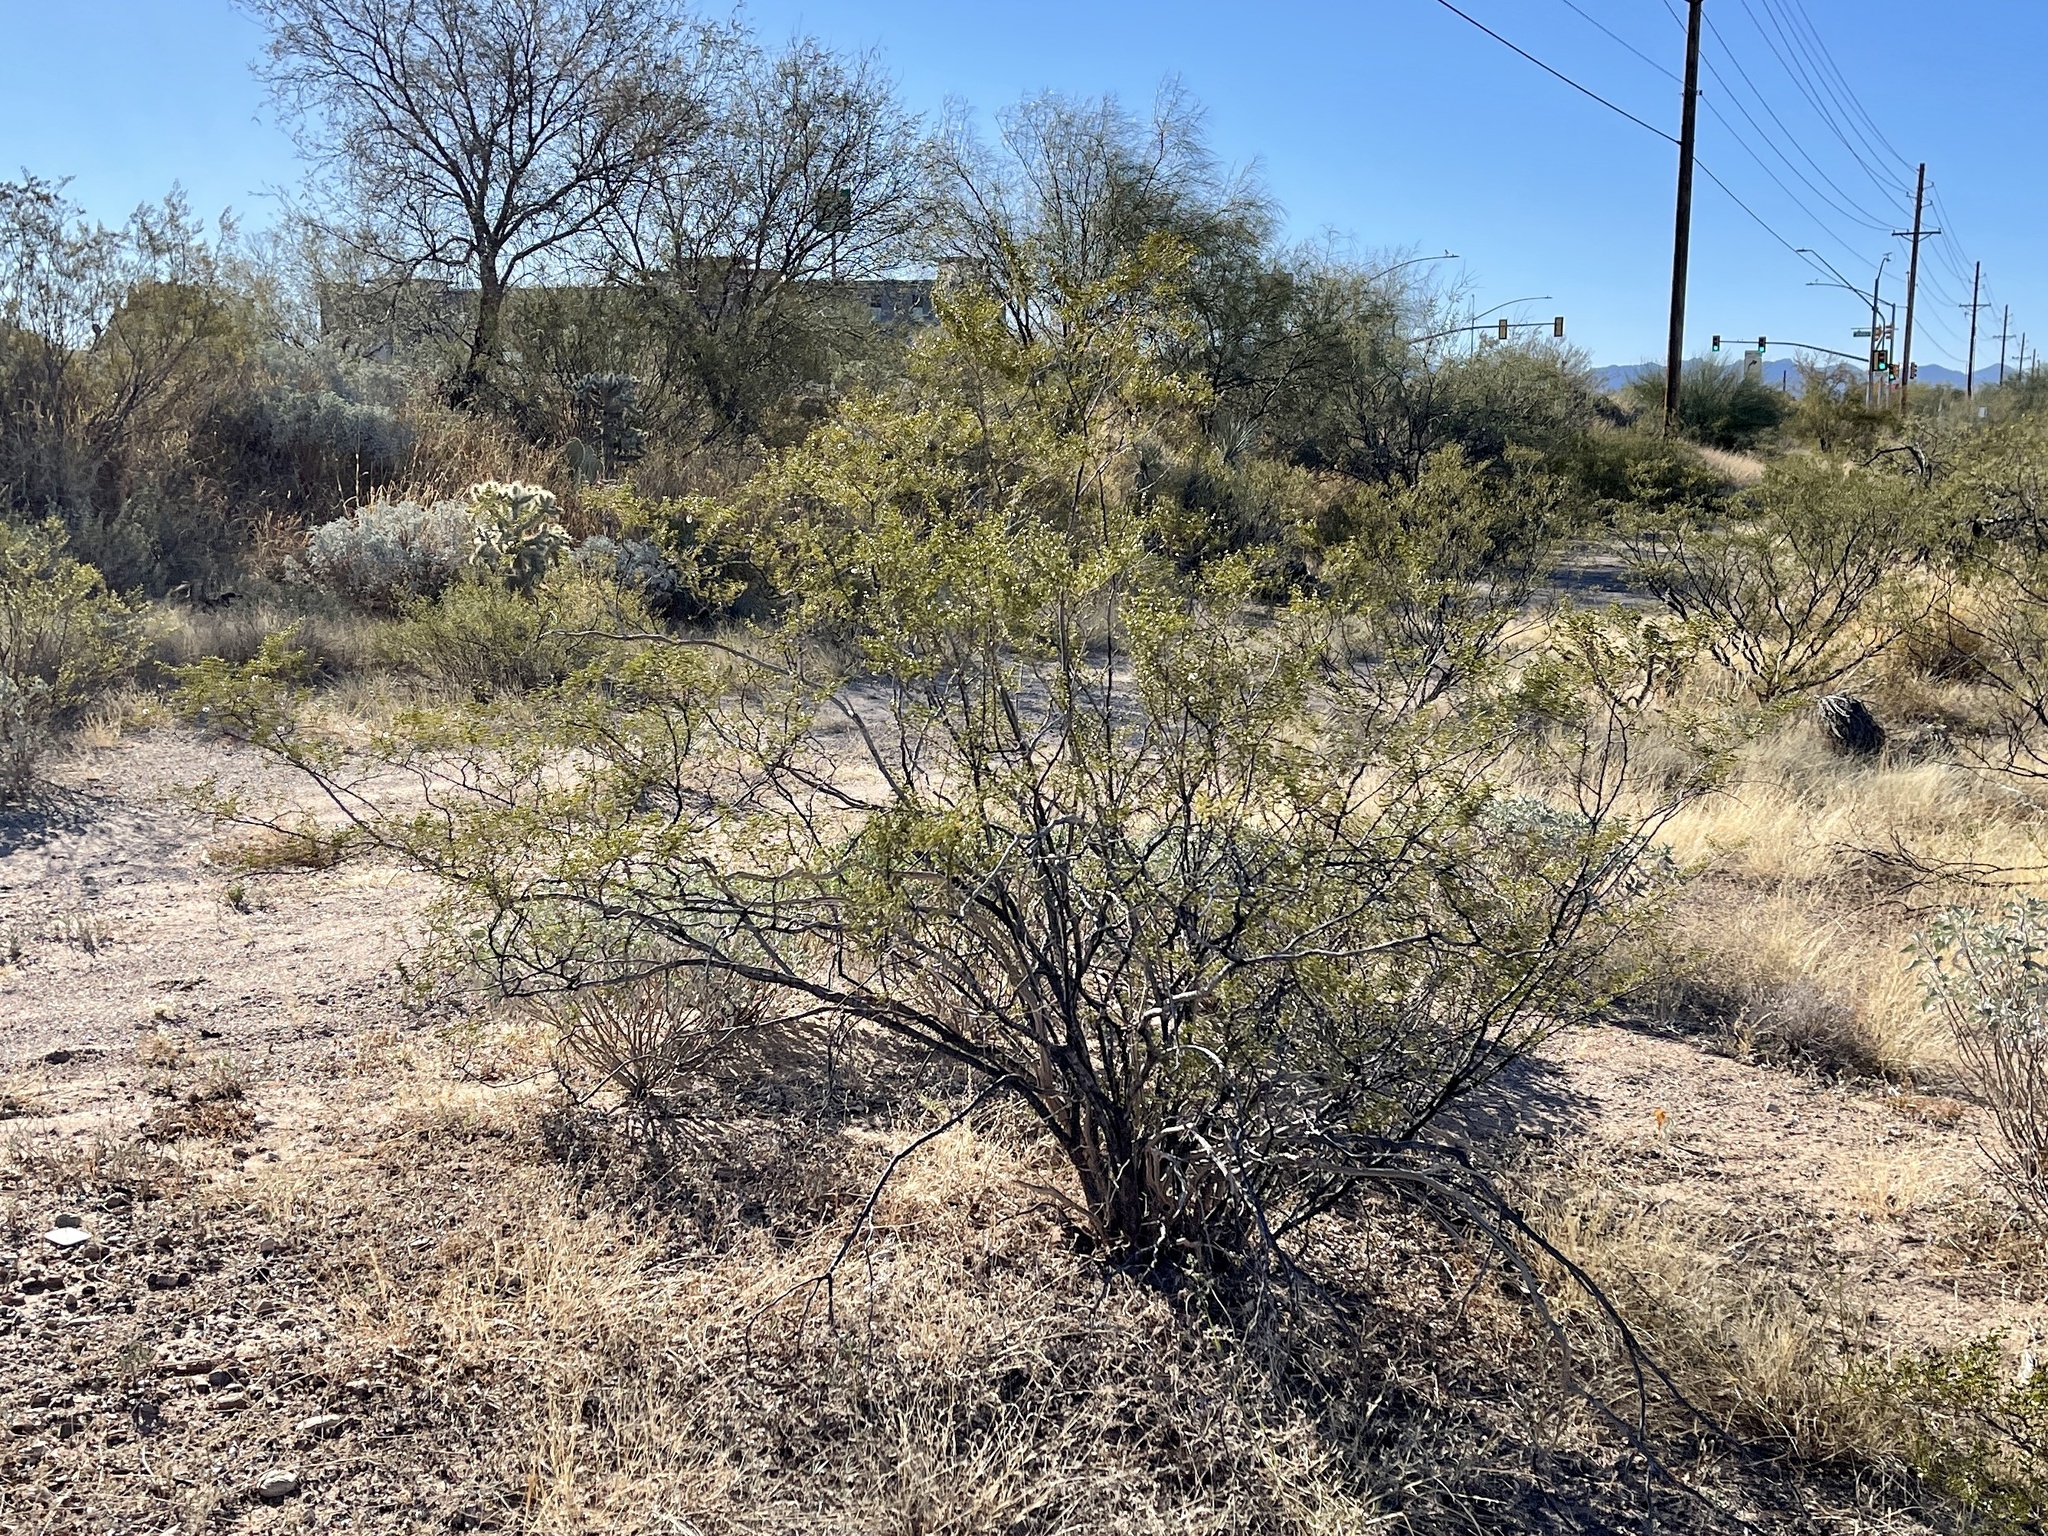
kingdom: Plantae
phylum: Tracheophyta
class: Magnoliopsida
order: Zygophyllales
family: Zygophyllaceae
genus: Larrea
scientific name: Larrea tridentata
